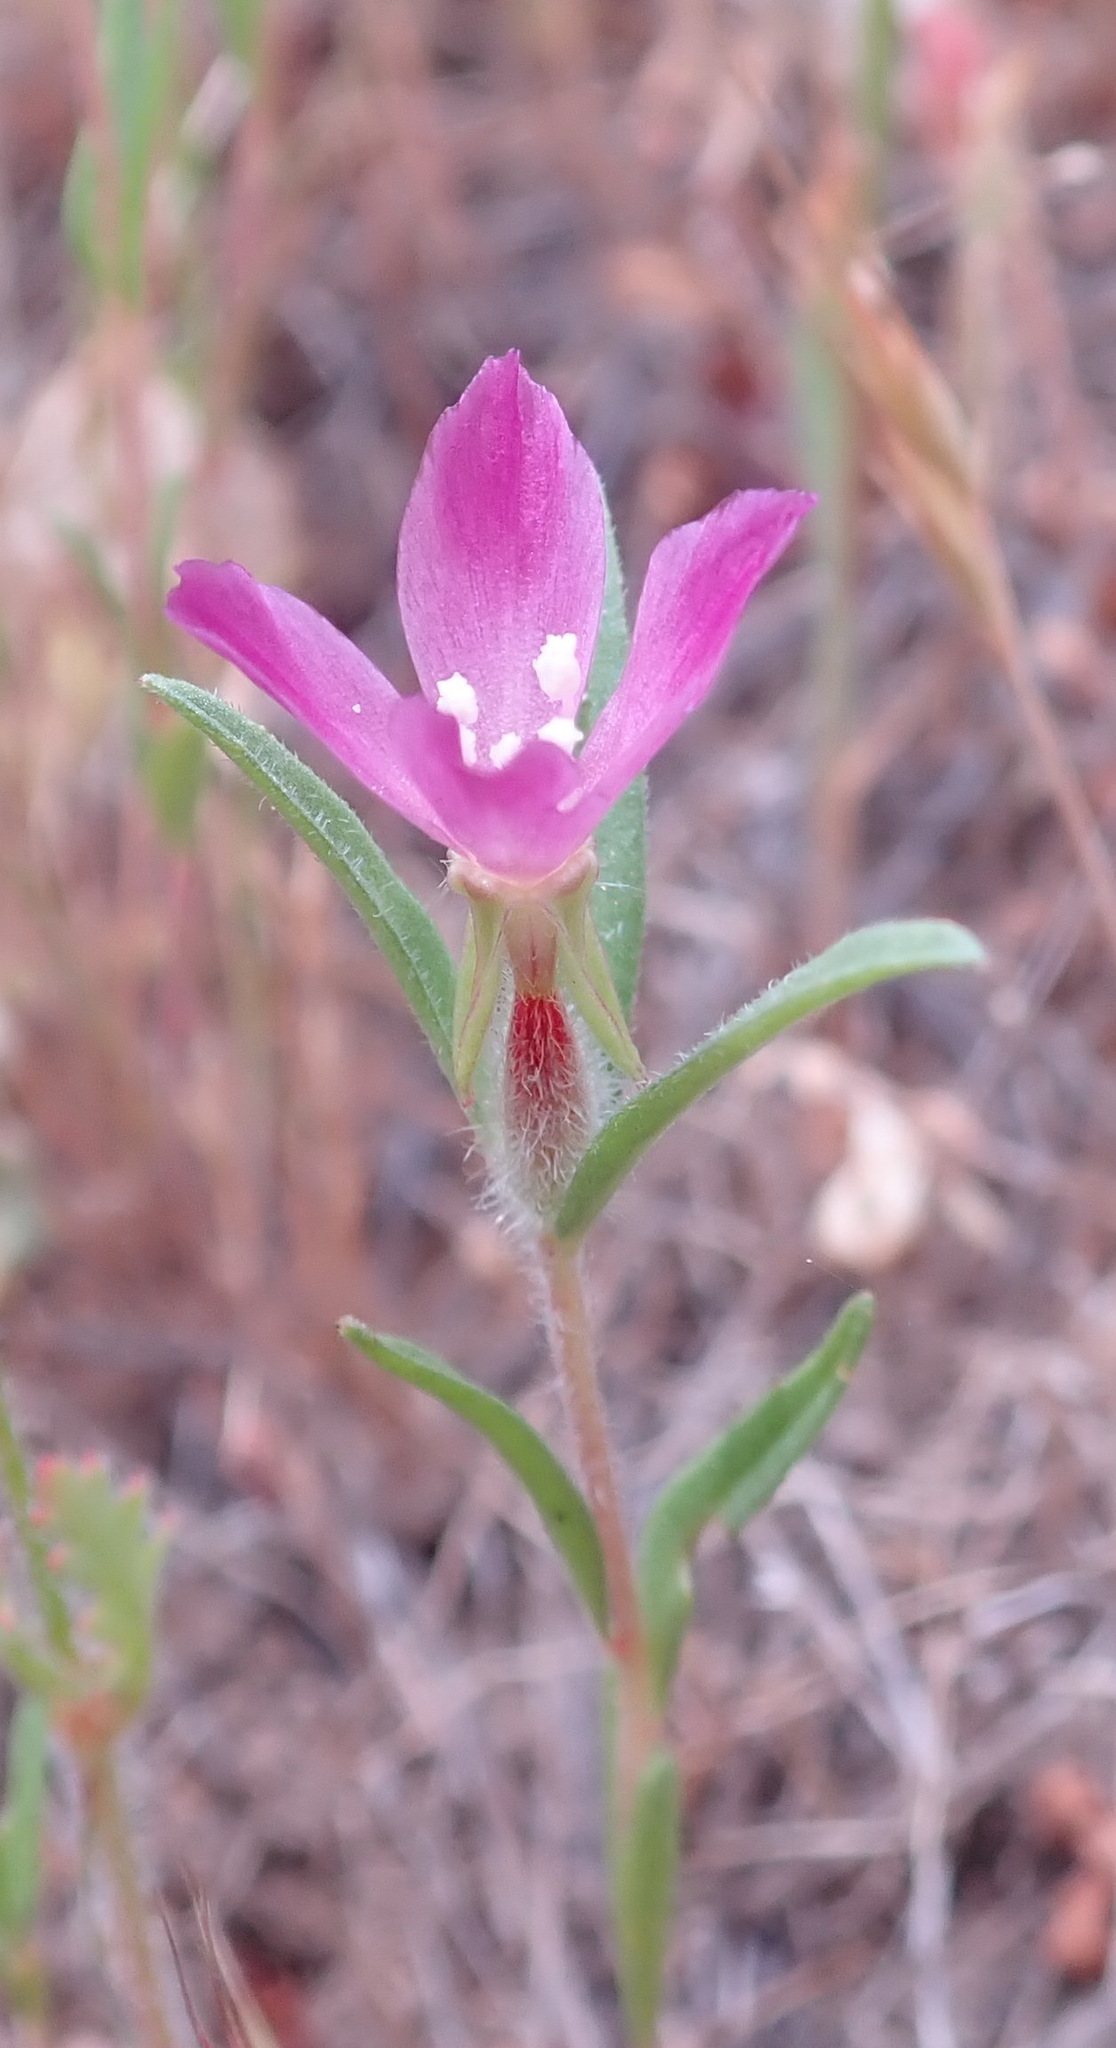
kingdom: Plantae
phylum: Tracheophyta
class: Magnoliopsida
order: Myrtales
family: Onagraceae
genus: Clarkia
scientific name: Clarkia purpurea
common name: Purple clarkia
